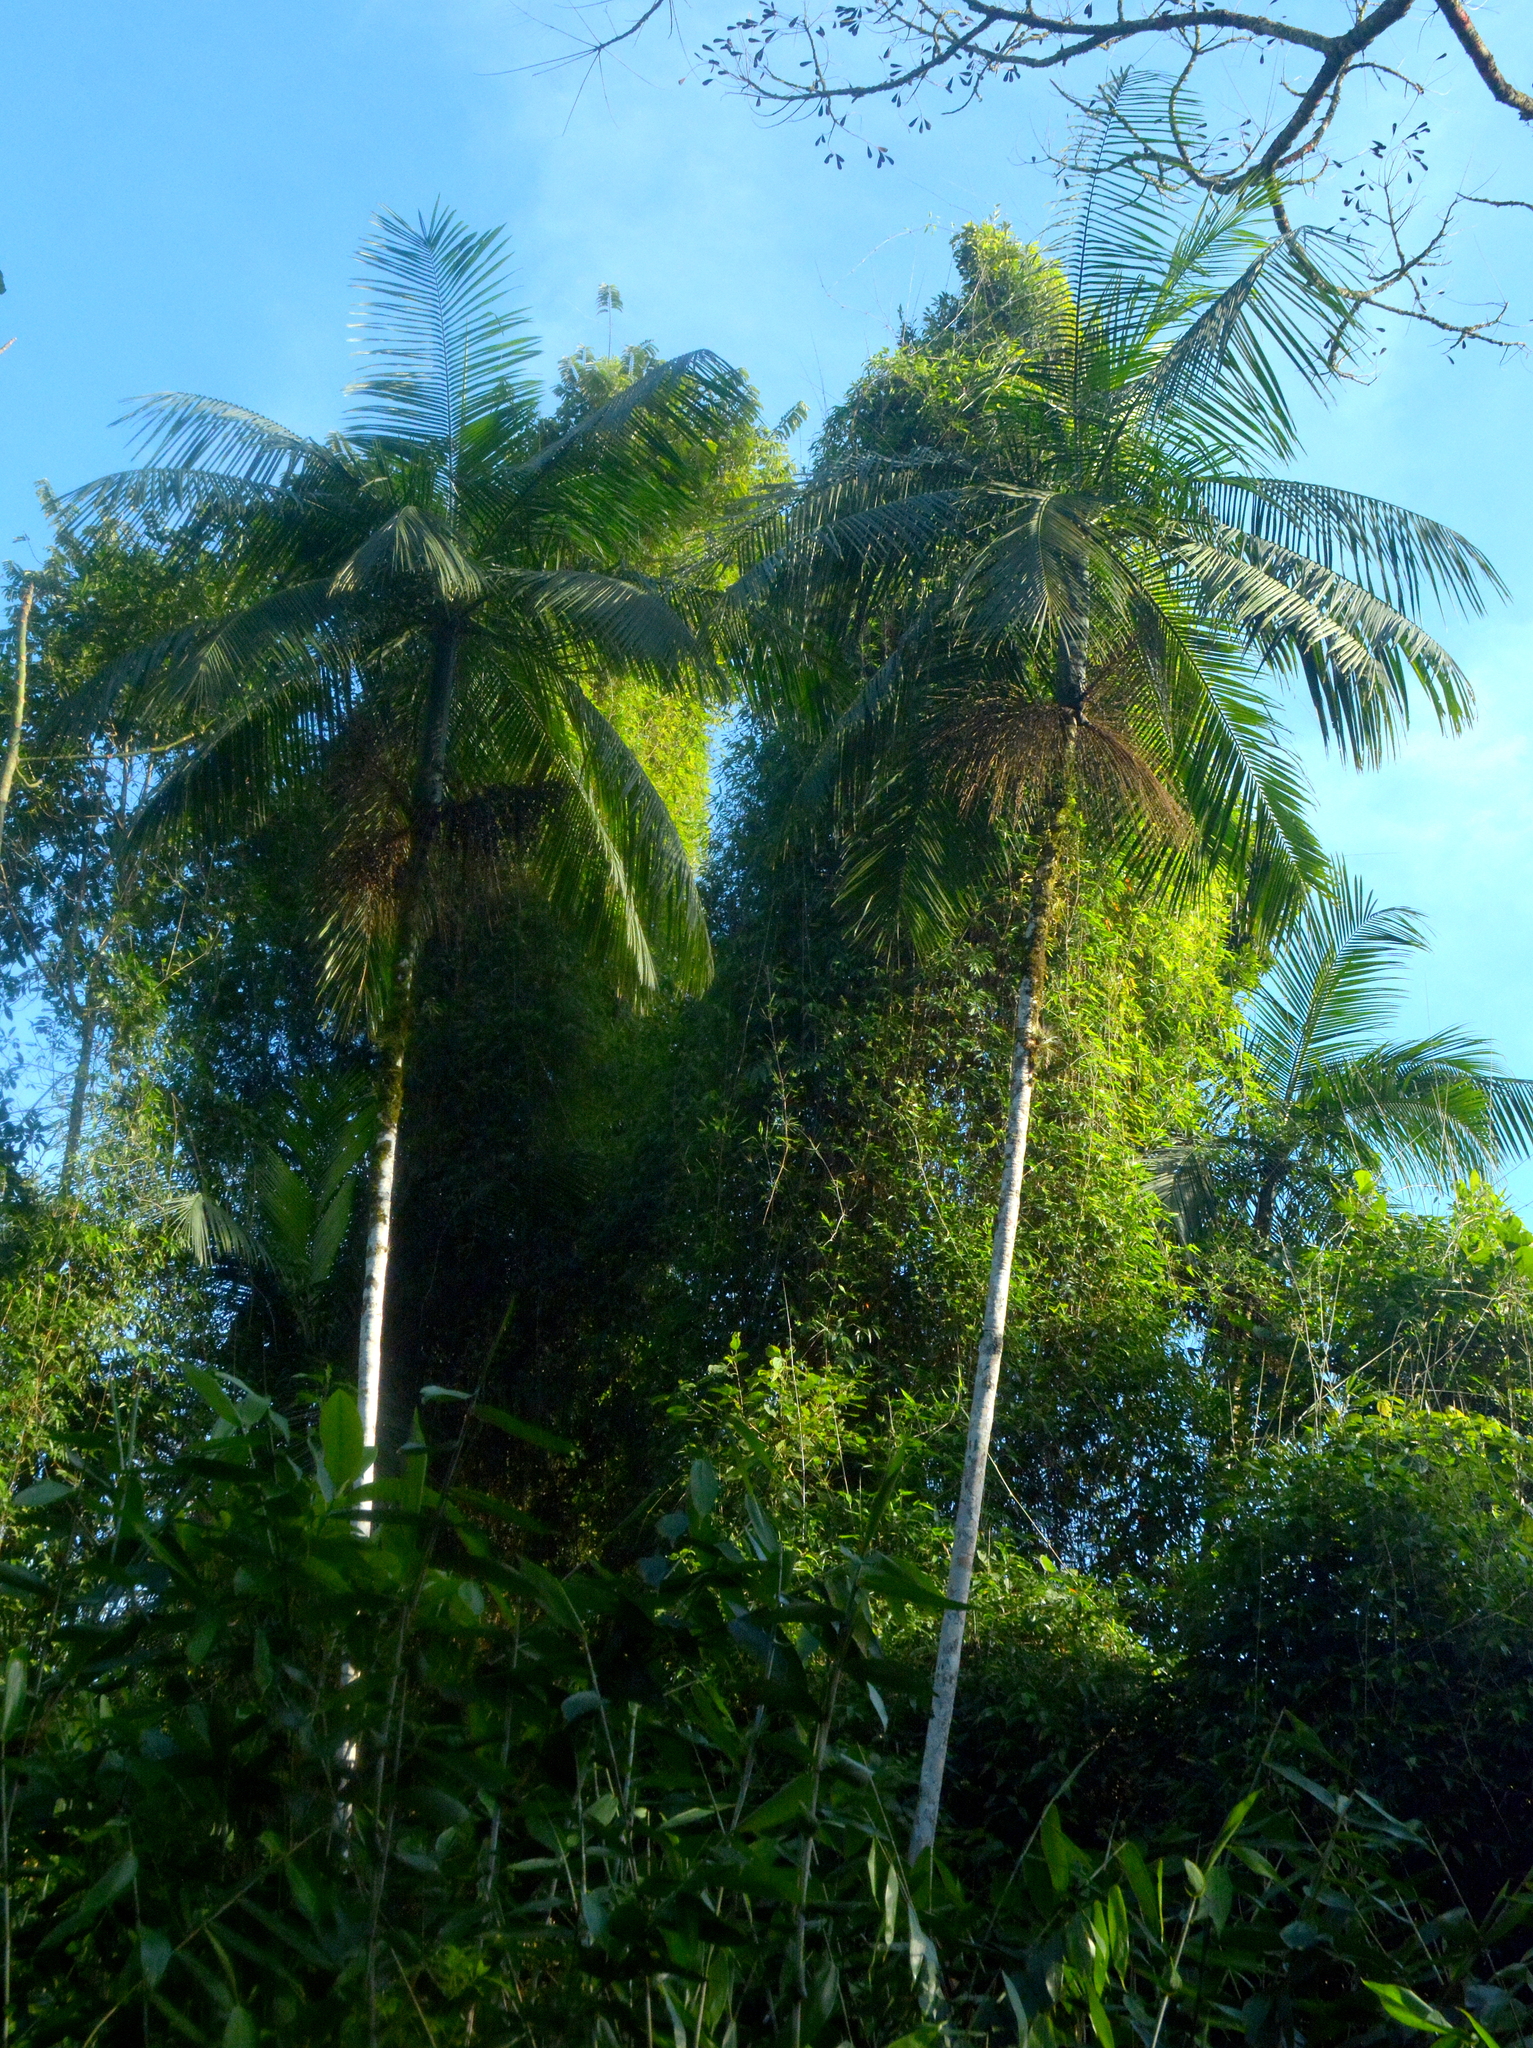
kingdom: Plantae
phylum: Tracheophyta
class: Liliopsida
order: Arecales
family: Arecaceae
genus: Euterpe
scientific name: Euterpe edulis
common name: Assai palm
